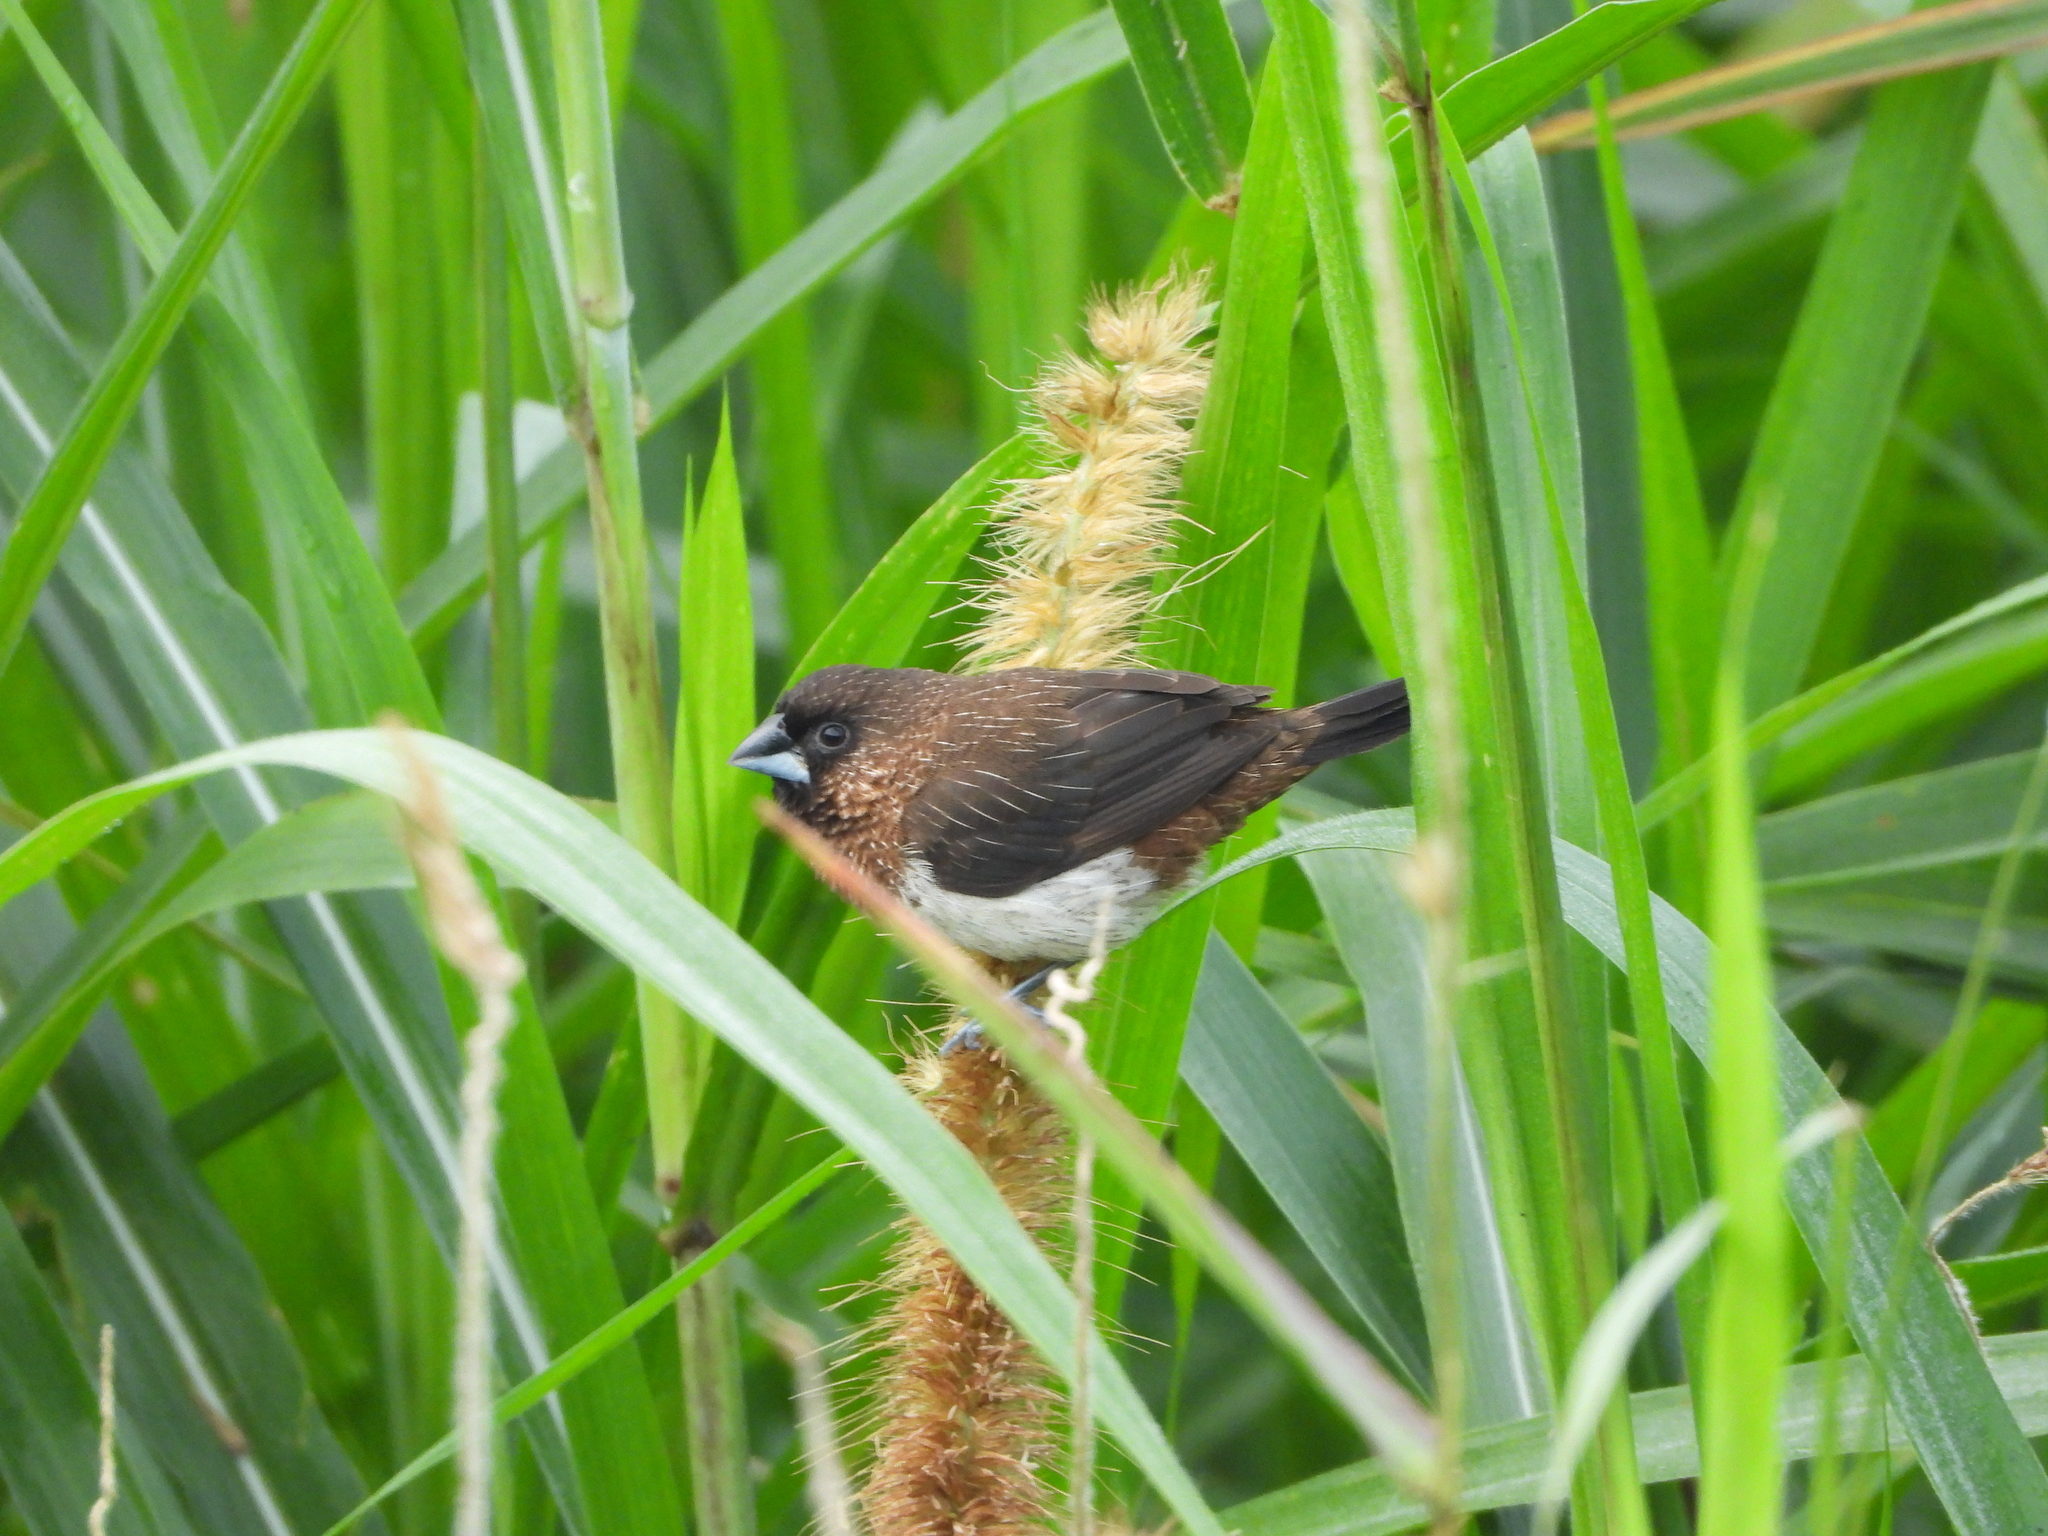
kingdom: Animalia
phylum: Chordata
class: Aves
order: Passeriformes
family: Estrildidae
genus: Lonchura
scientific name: Lonchura striata
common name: White-rumped munia
